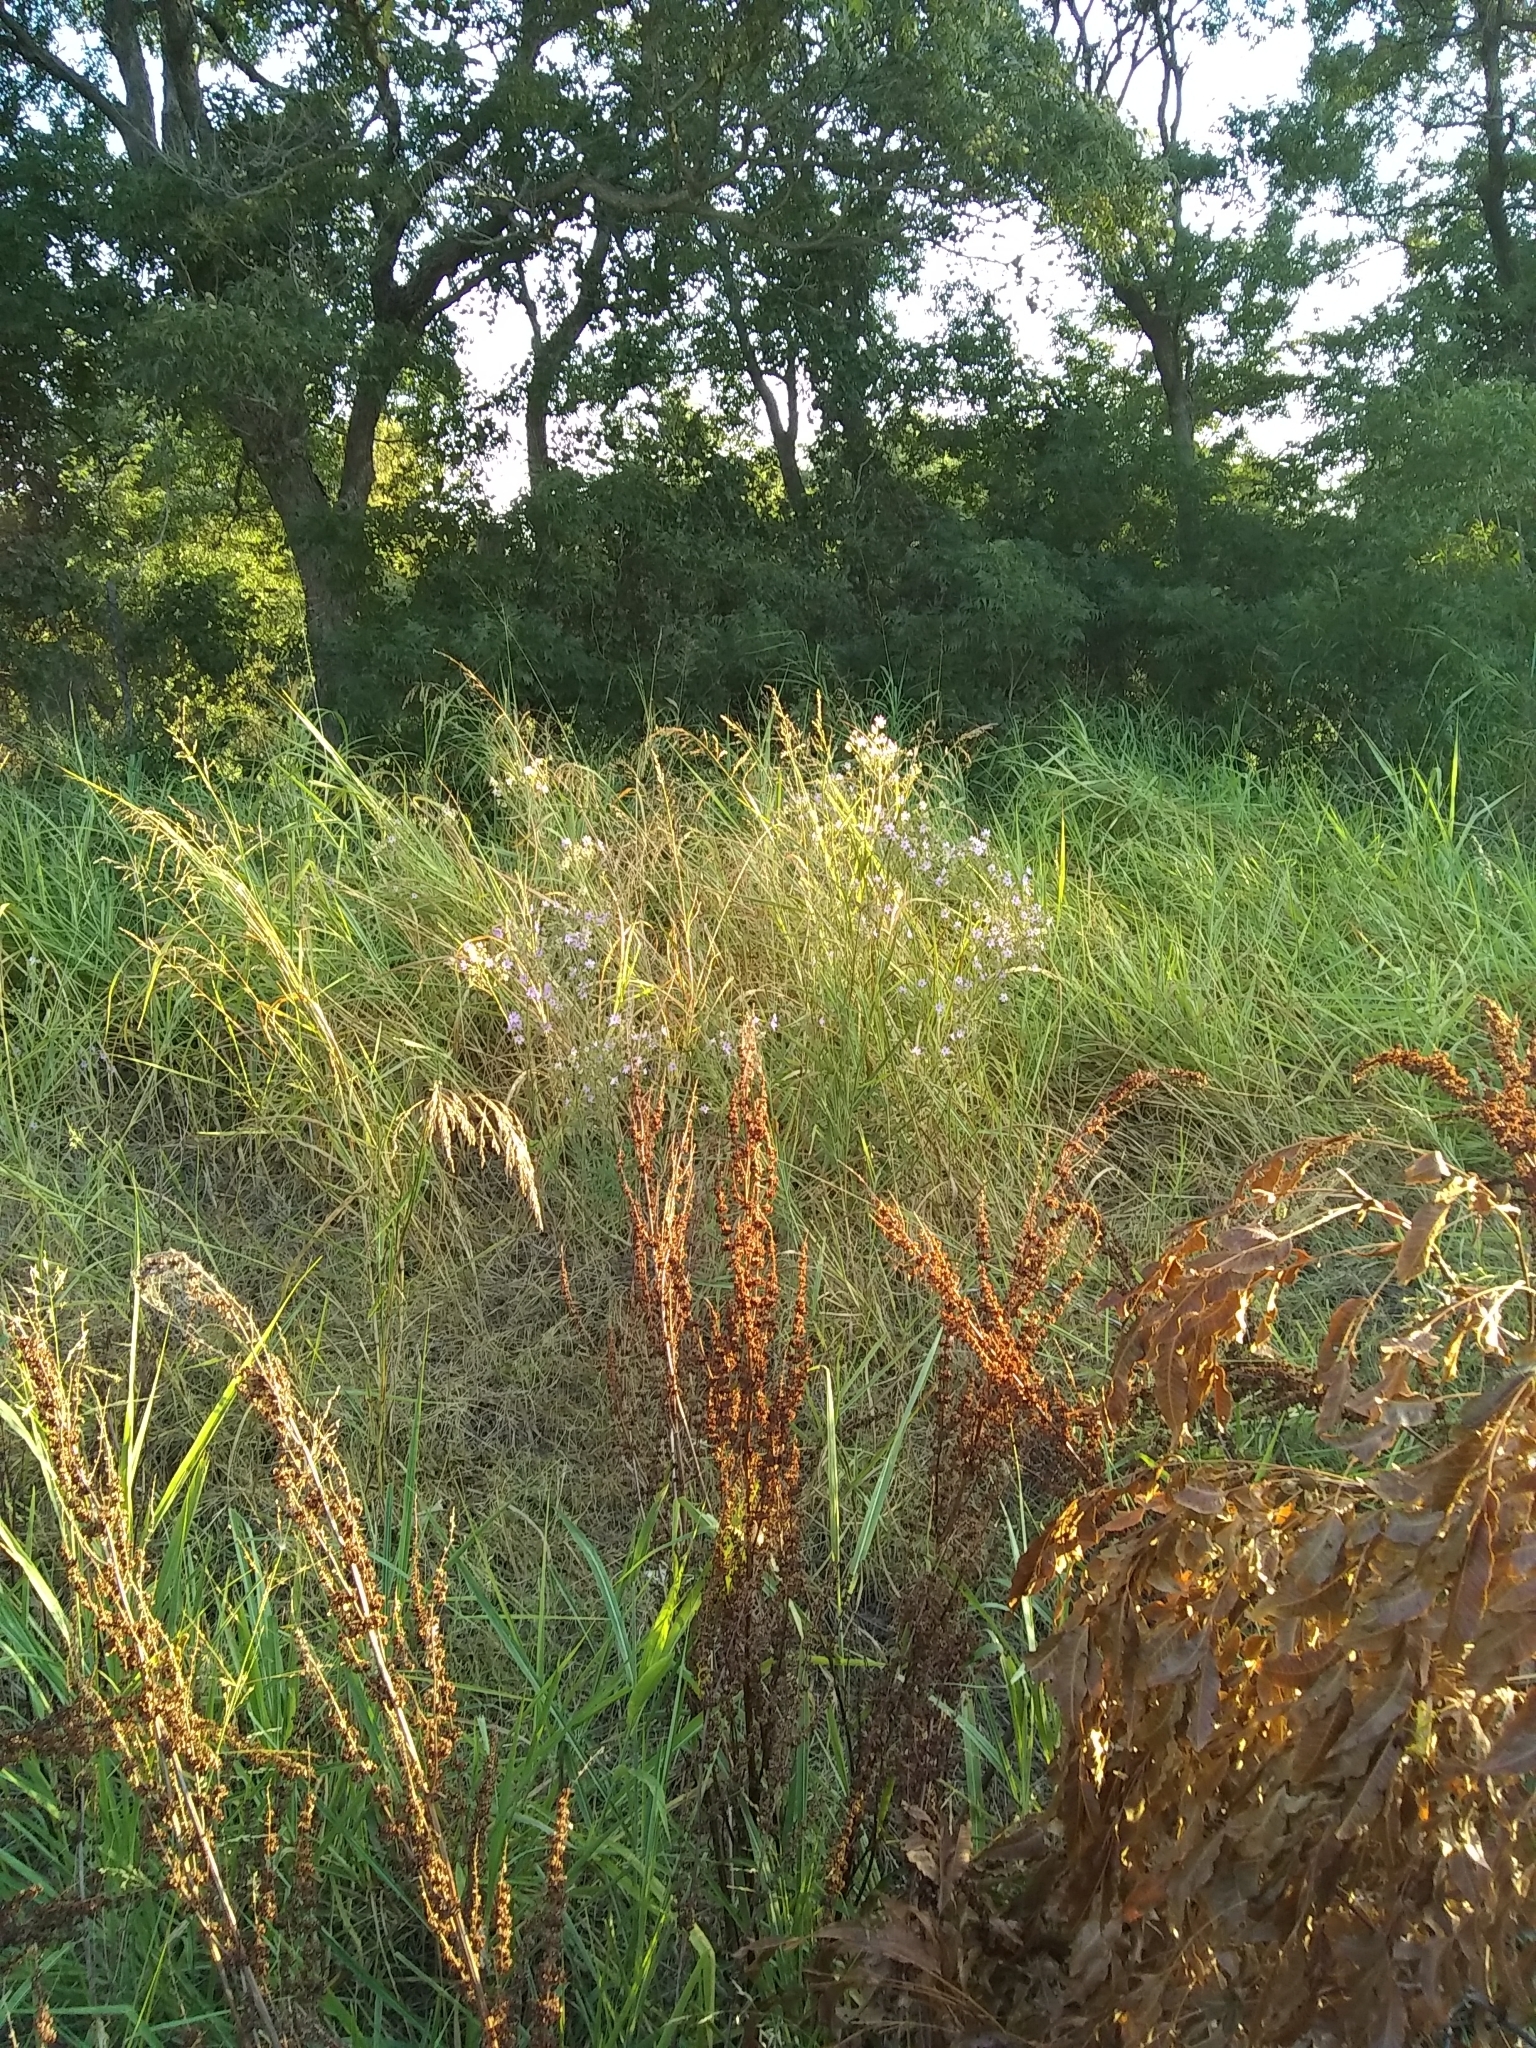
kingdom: Plantae
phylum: Tracheophyta
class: Magnoliopsida
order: Caryophyllales
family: Polygonaceae
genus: Rumex
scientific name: Rumex crispus
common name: Curled dock
